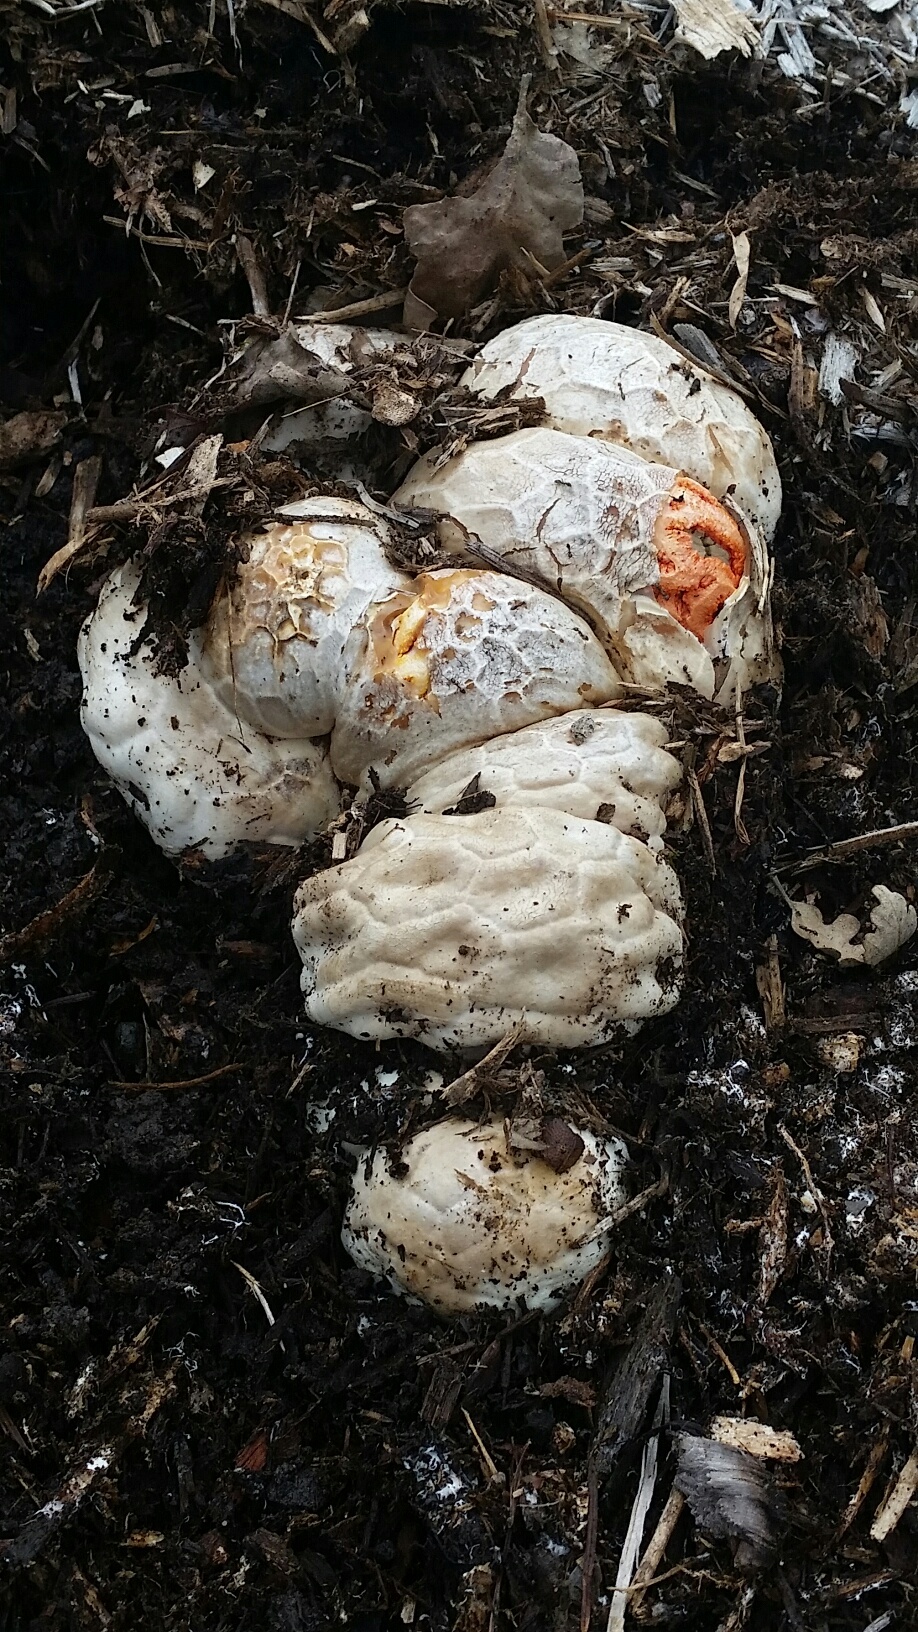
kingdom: Fungi
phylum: Basidiomycota
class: Agaricomycetes
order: Phallales
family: Phallaceae
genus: Clathrus
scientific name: Clathrus ruber
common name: Red cage
